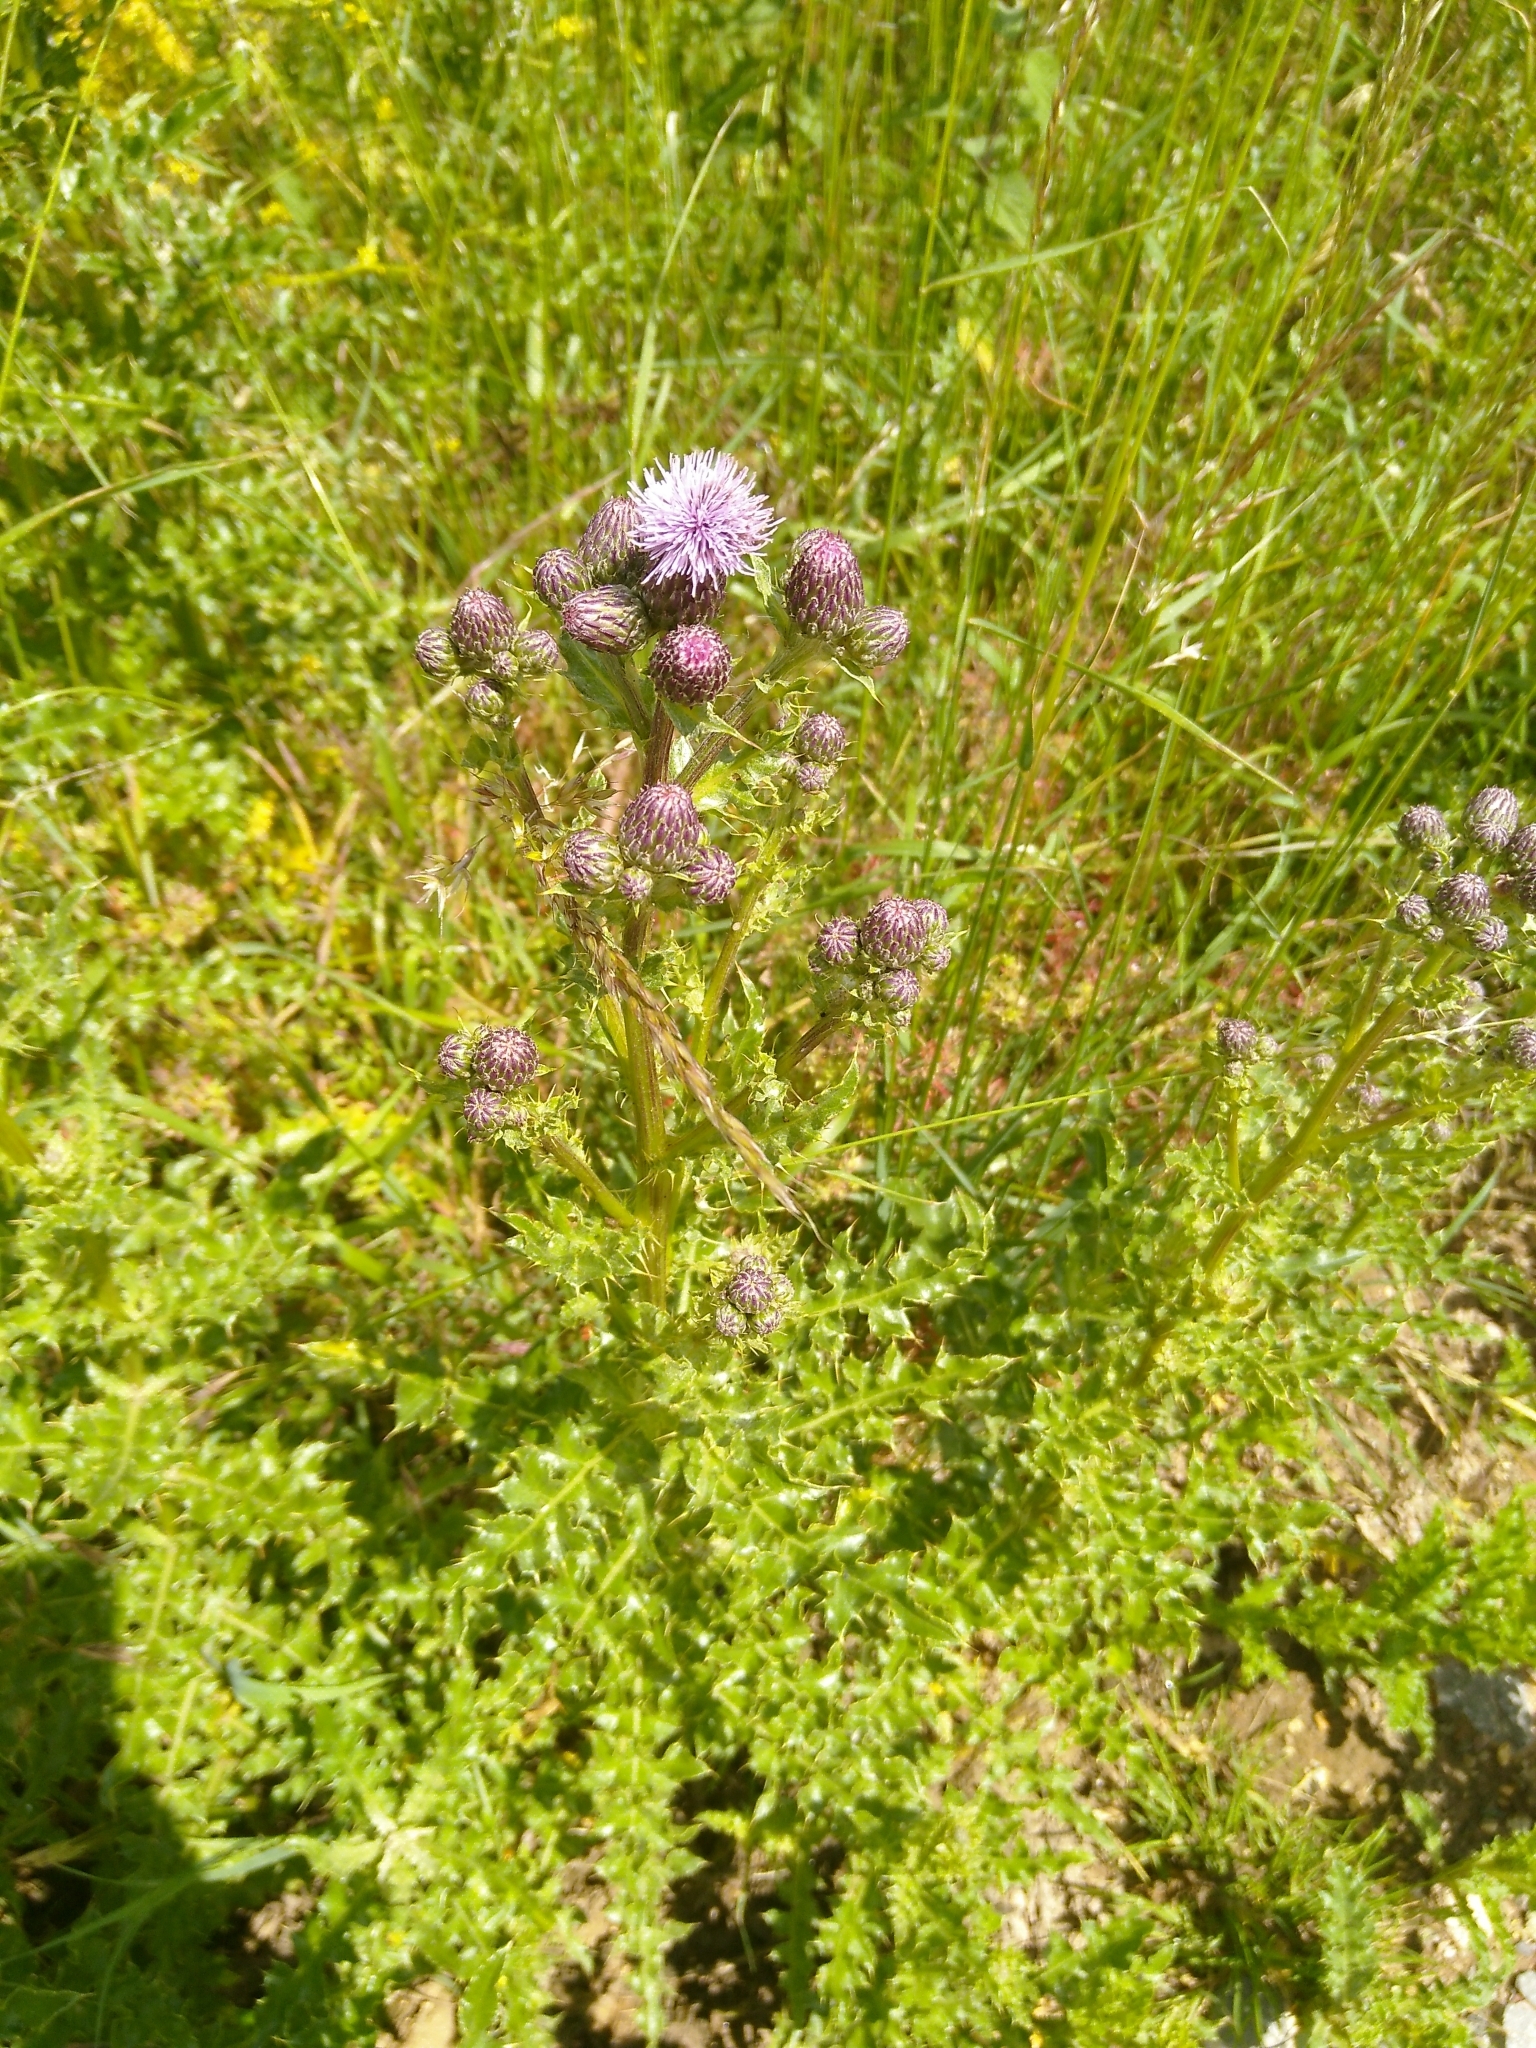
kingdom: Plantae
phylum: Tracheophyta
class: Magnoliopsida
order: Asterales
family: Asteraceae
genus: Cirsium
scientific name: Cirsium arvense
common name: Creeping thistle
